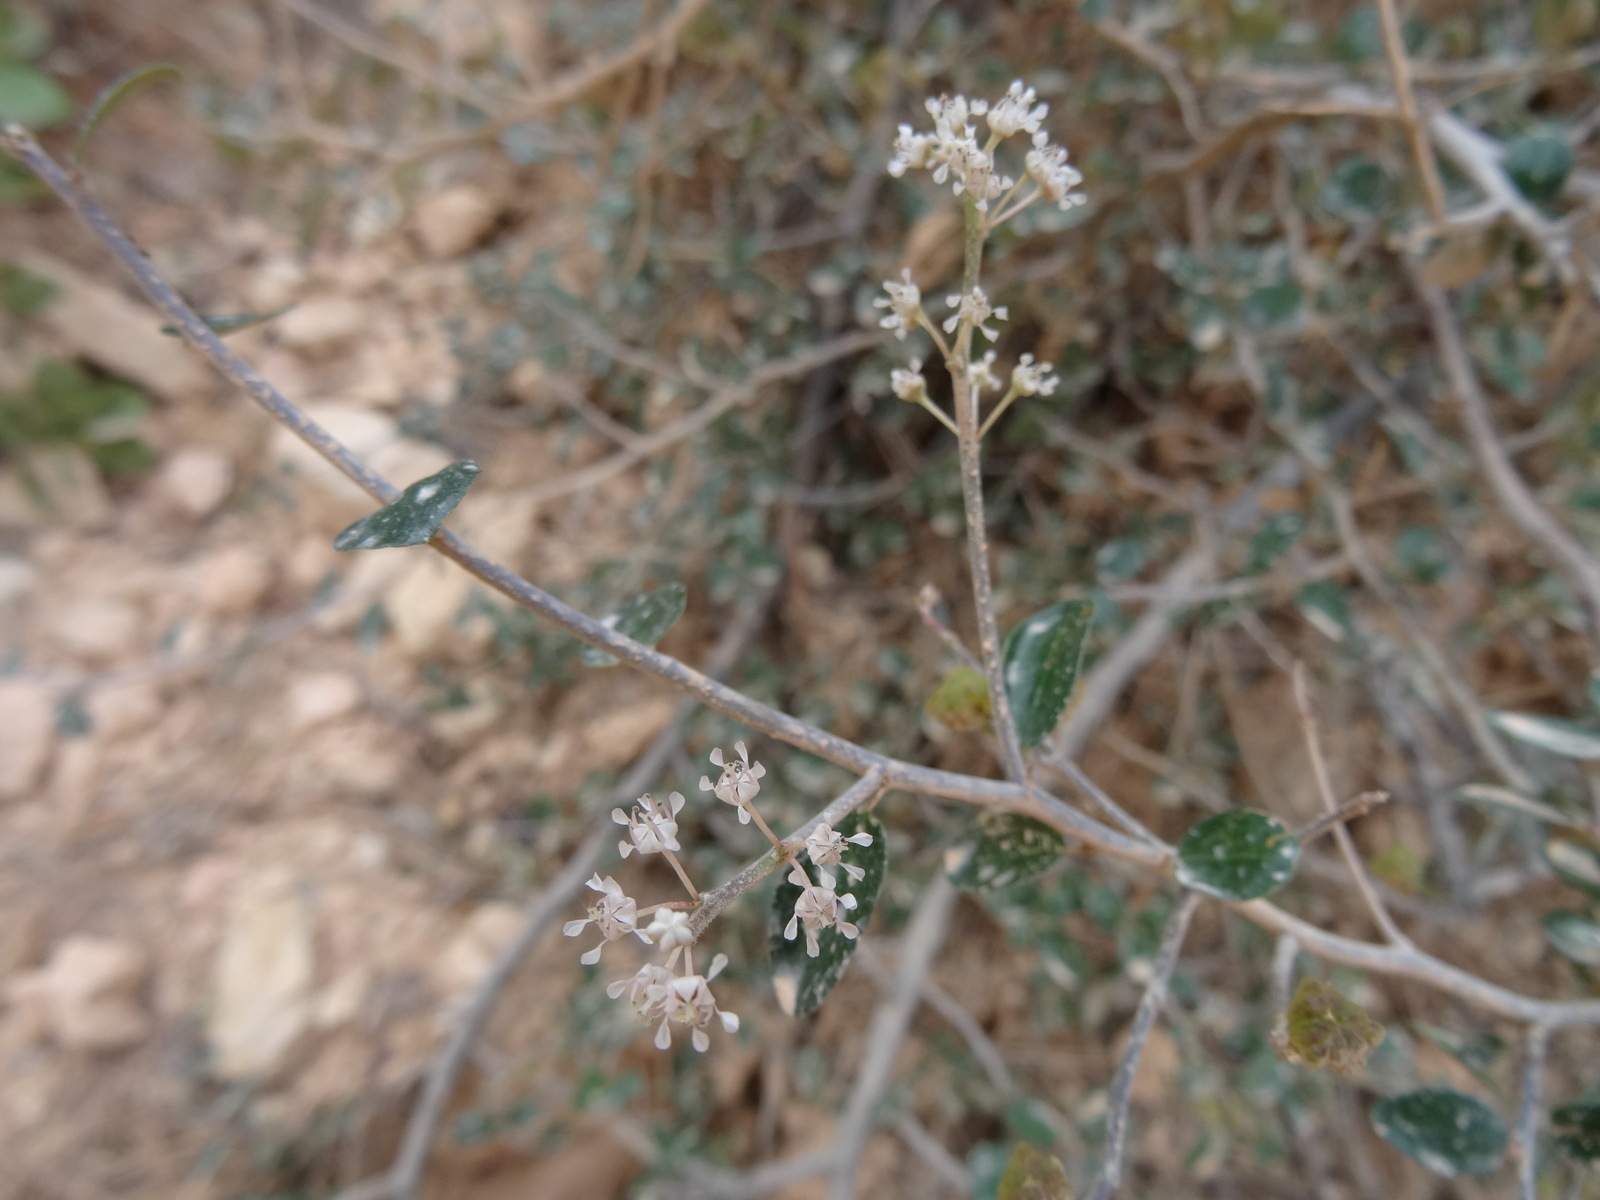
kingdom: Plantae
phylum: Tracheophyta
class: Magnoliopsida
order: Rosales
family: Rhamnaceae
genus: Ceanothus
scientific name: Ceanothus fendleri
